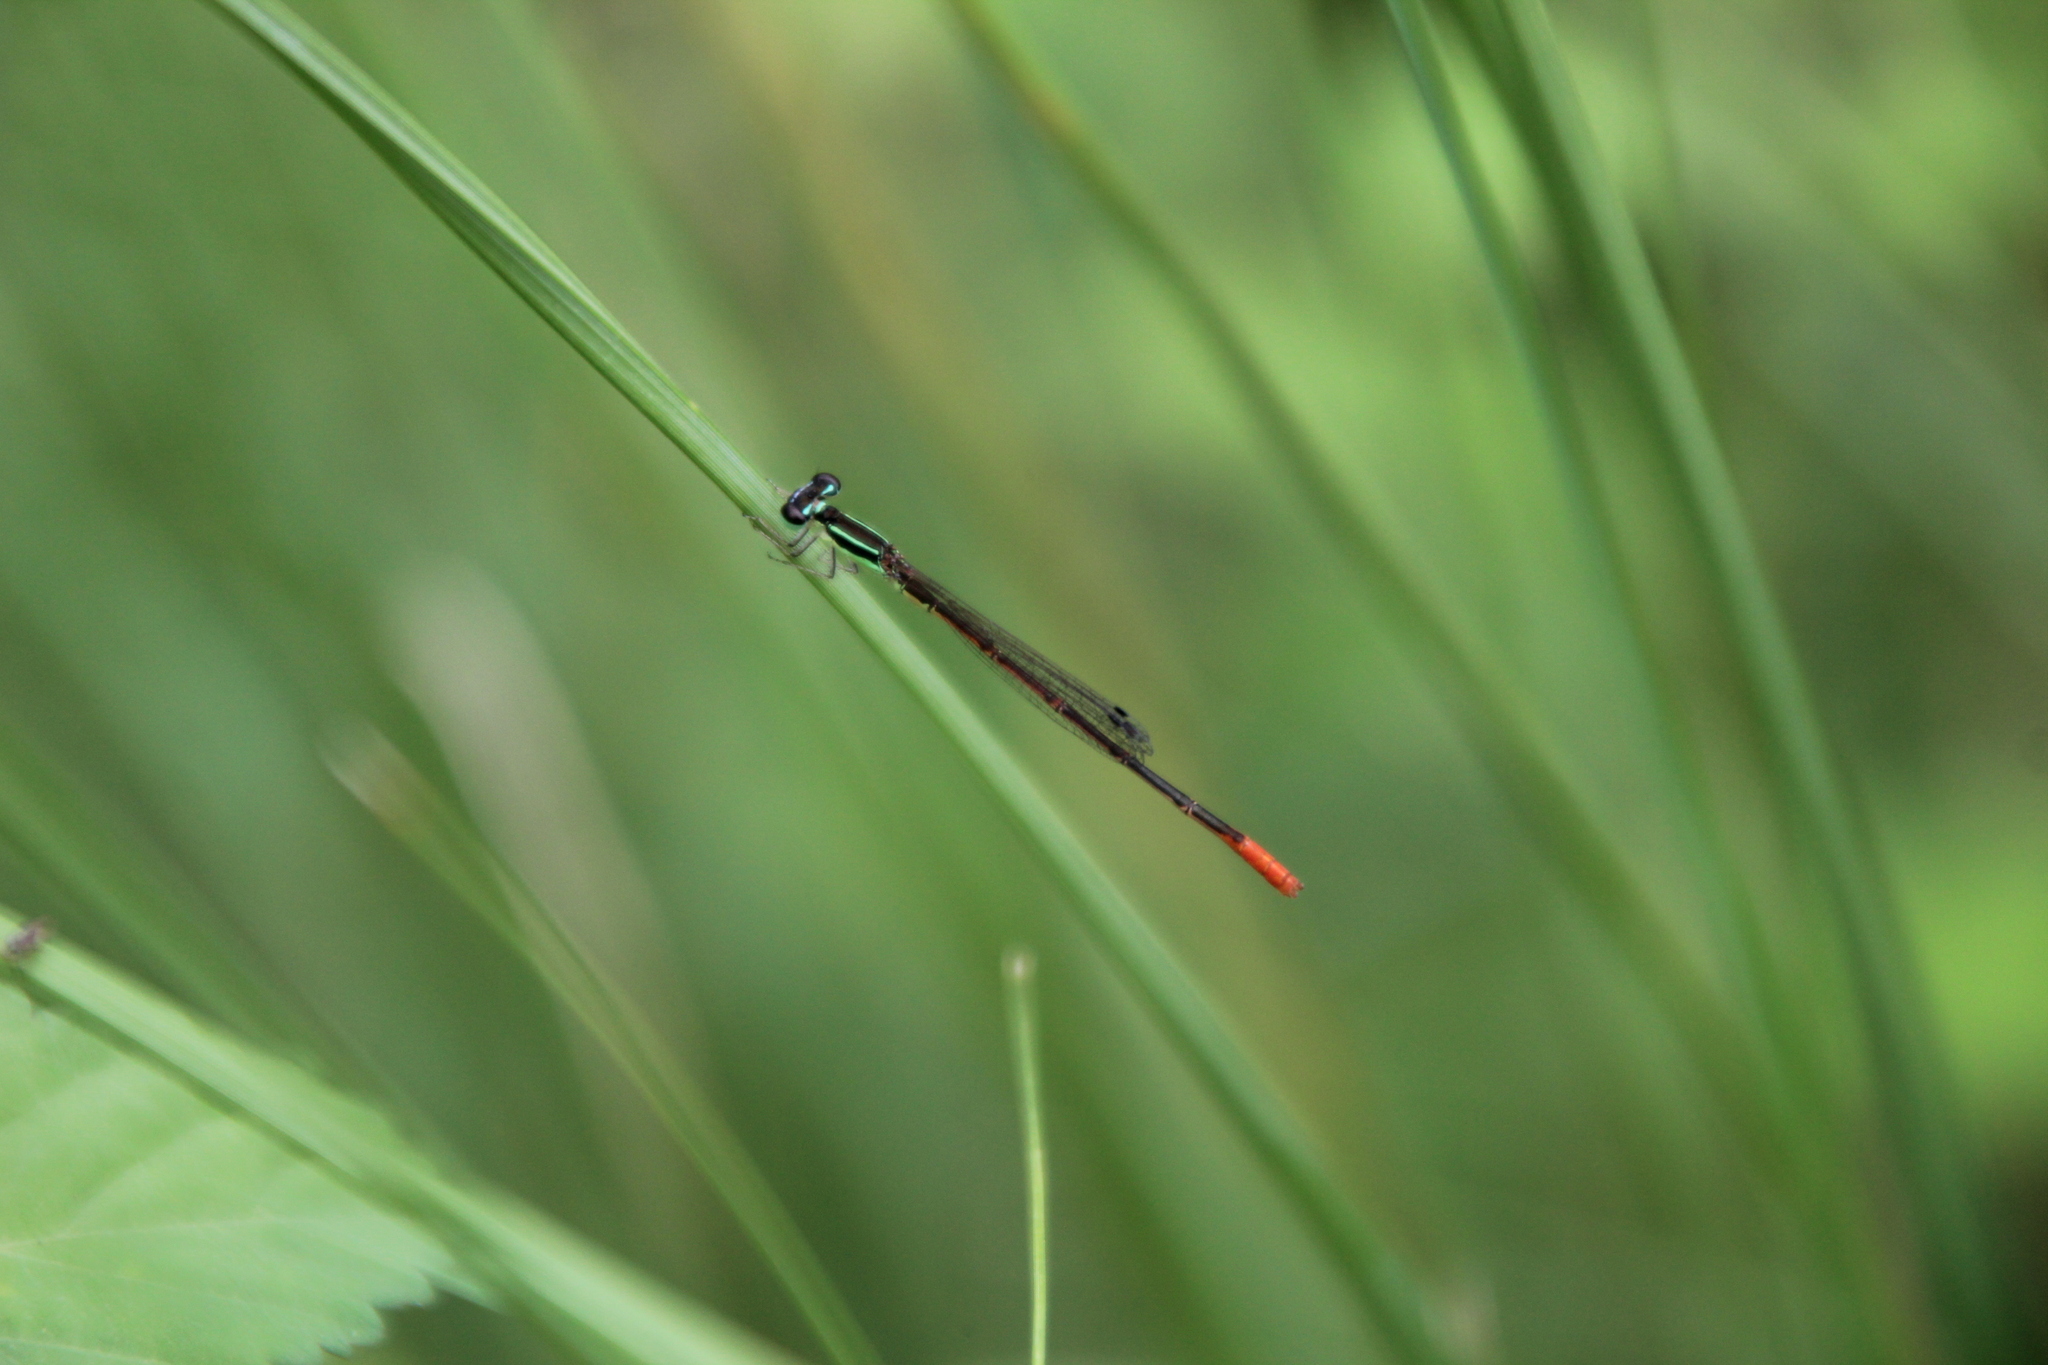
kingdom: Animalia
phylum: Arthropoda
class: Insecta
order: Odonata
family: Coenagrionidae
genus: Agriocnemis
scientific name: Agriocnemis falcifera
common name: White-masked wisp
